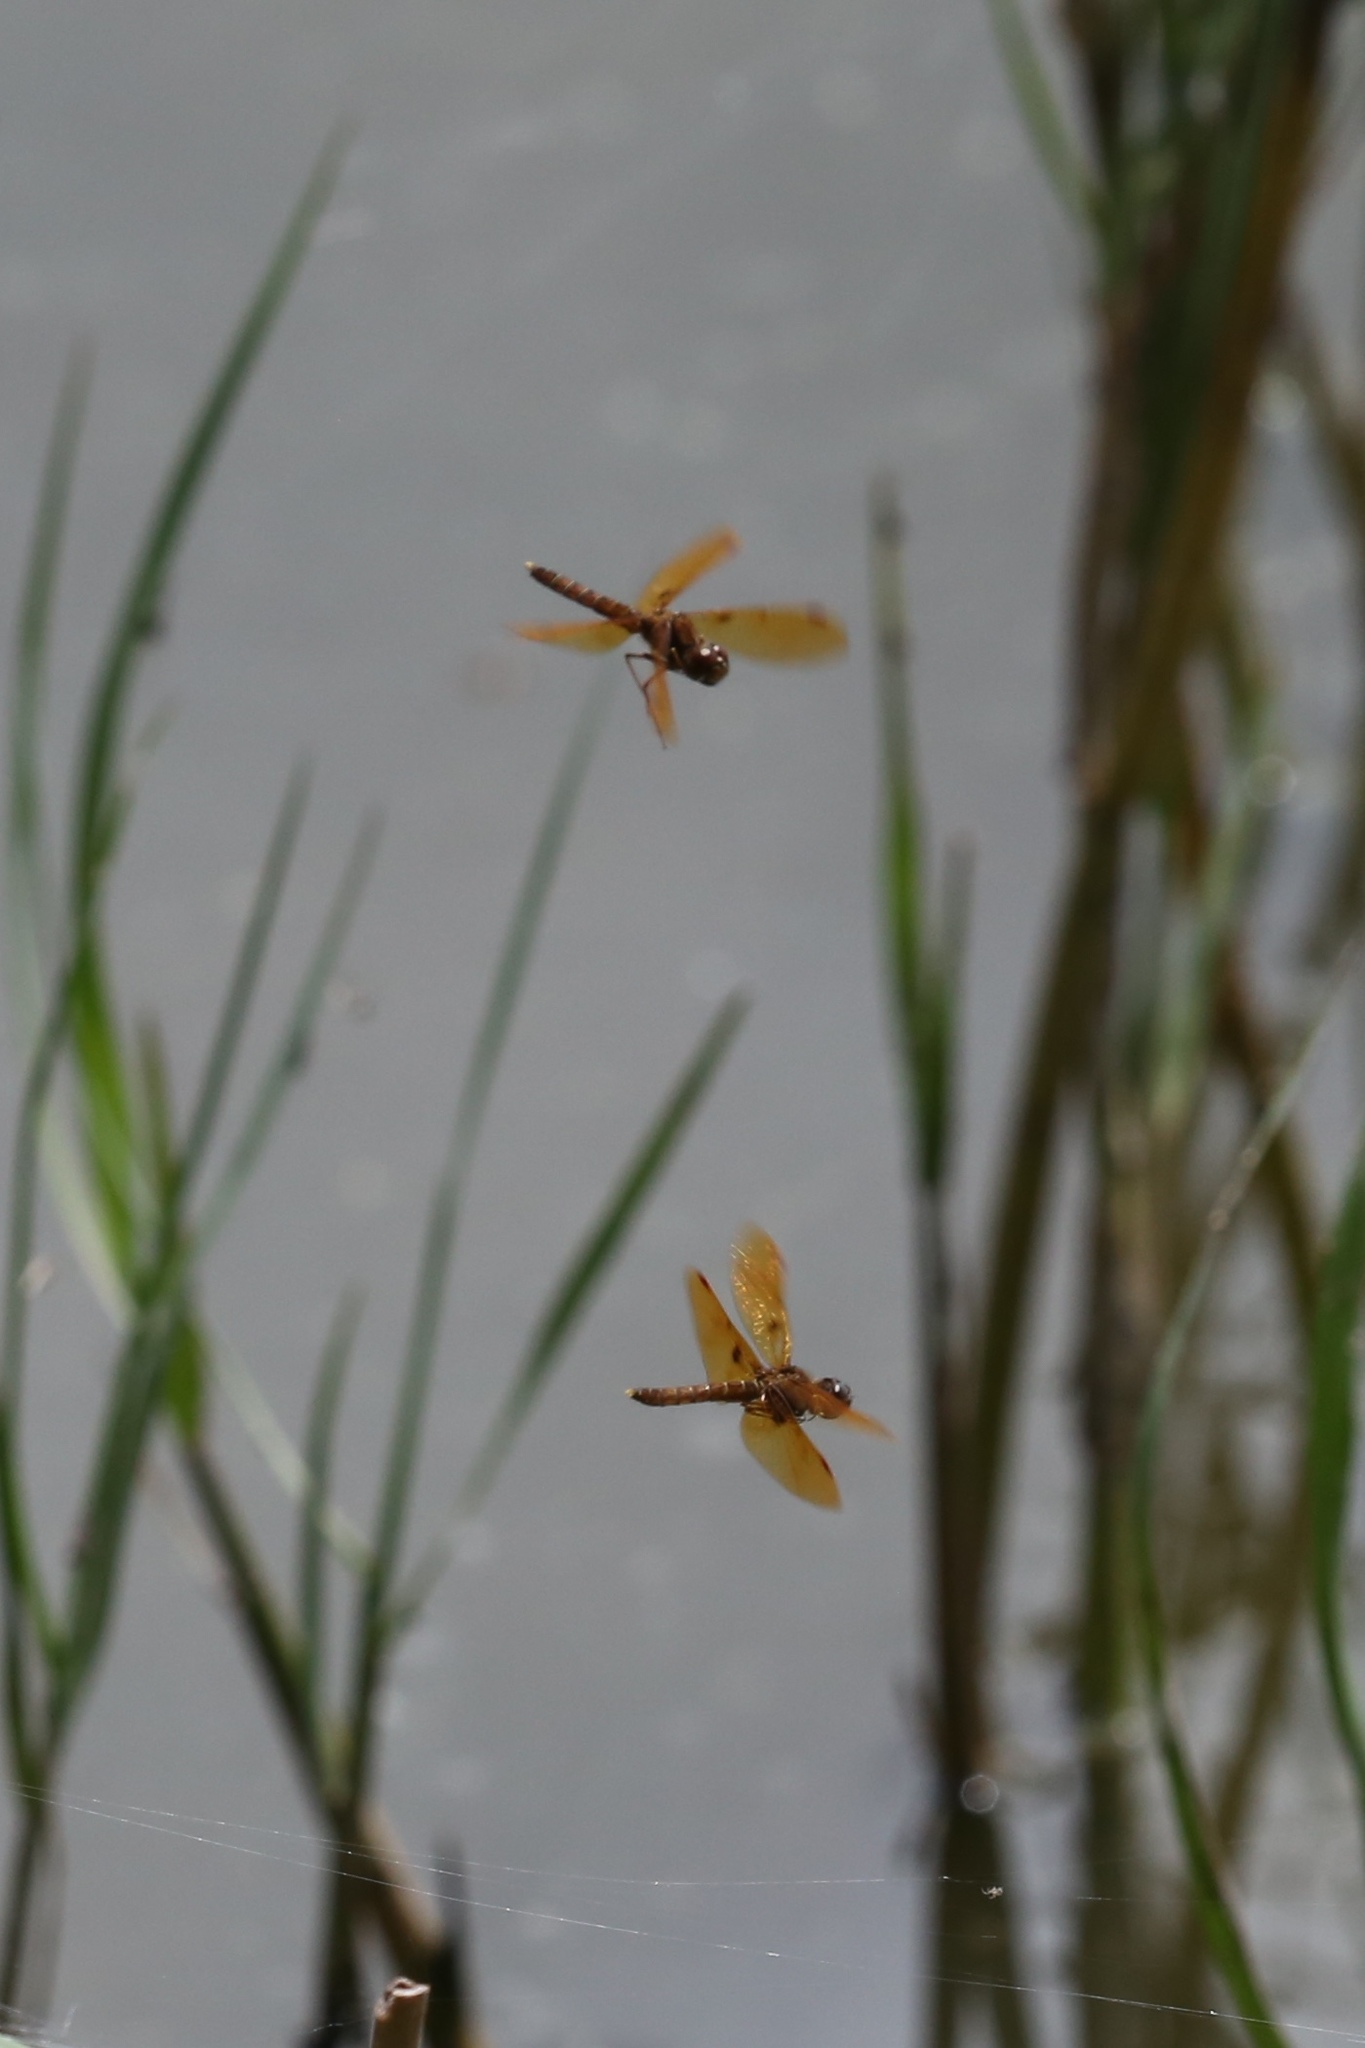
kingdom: Animalia
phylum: Arthropoda
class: Insecta
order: Odonata
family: Libellulidae
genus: Perithemis
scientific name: Perithemis tenera
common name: Eastern amberwing
